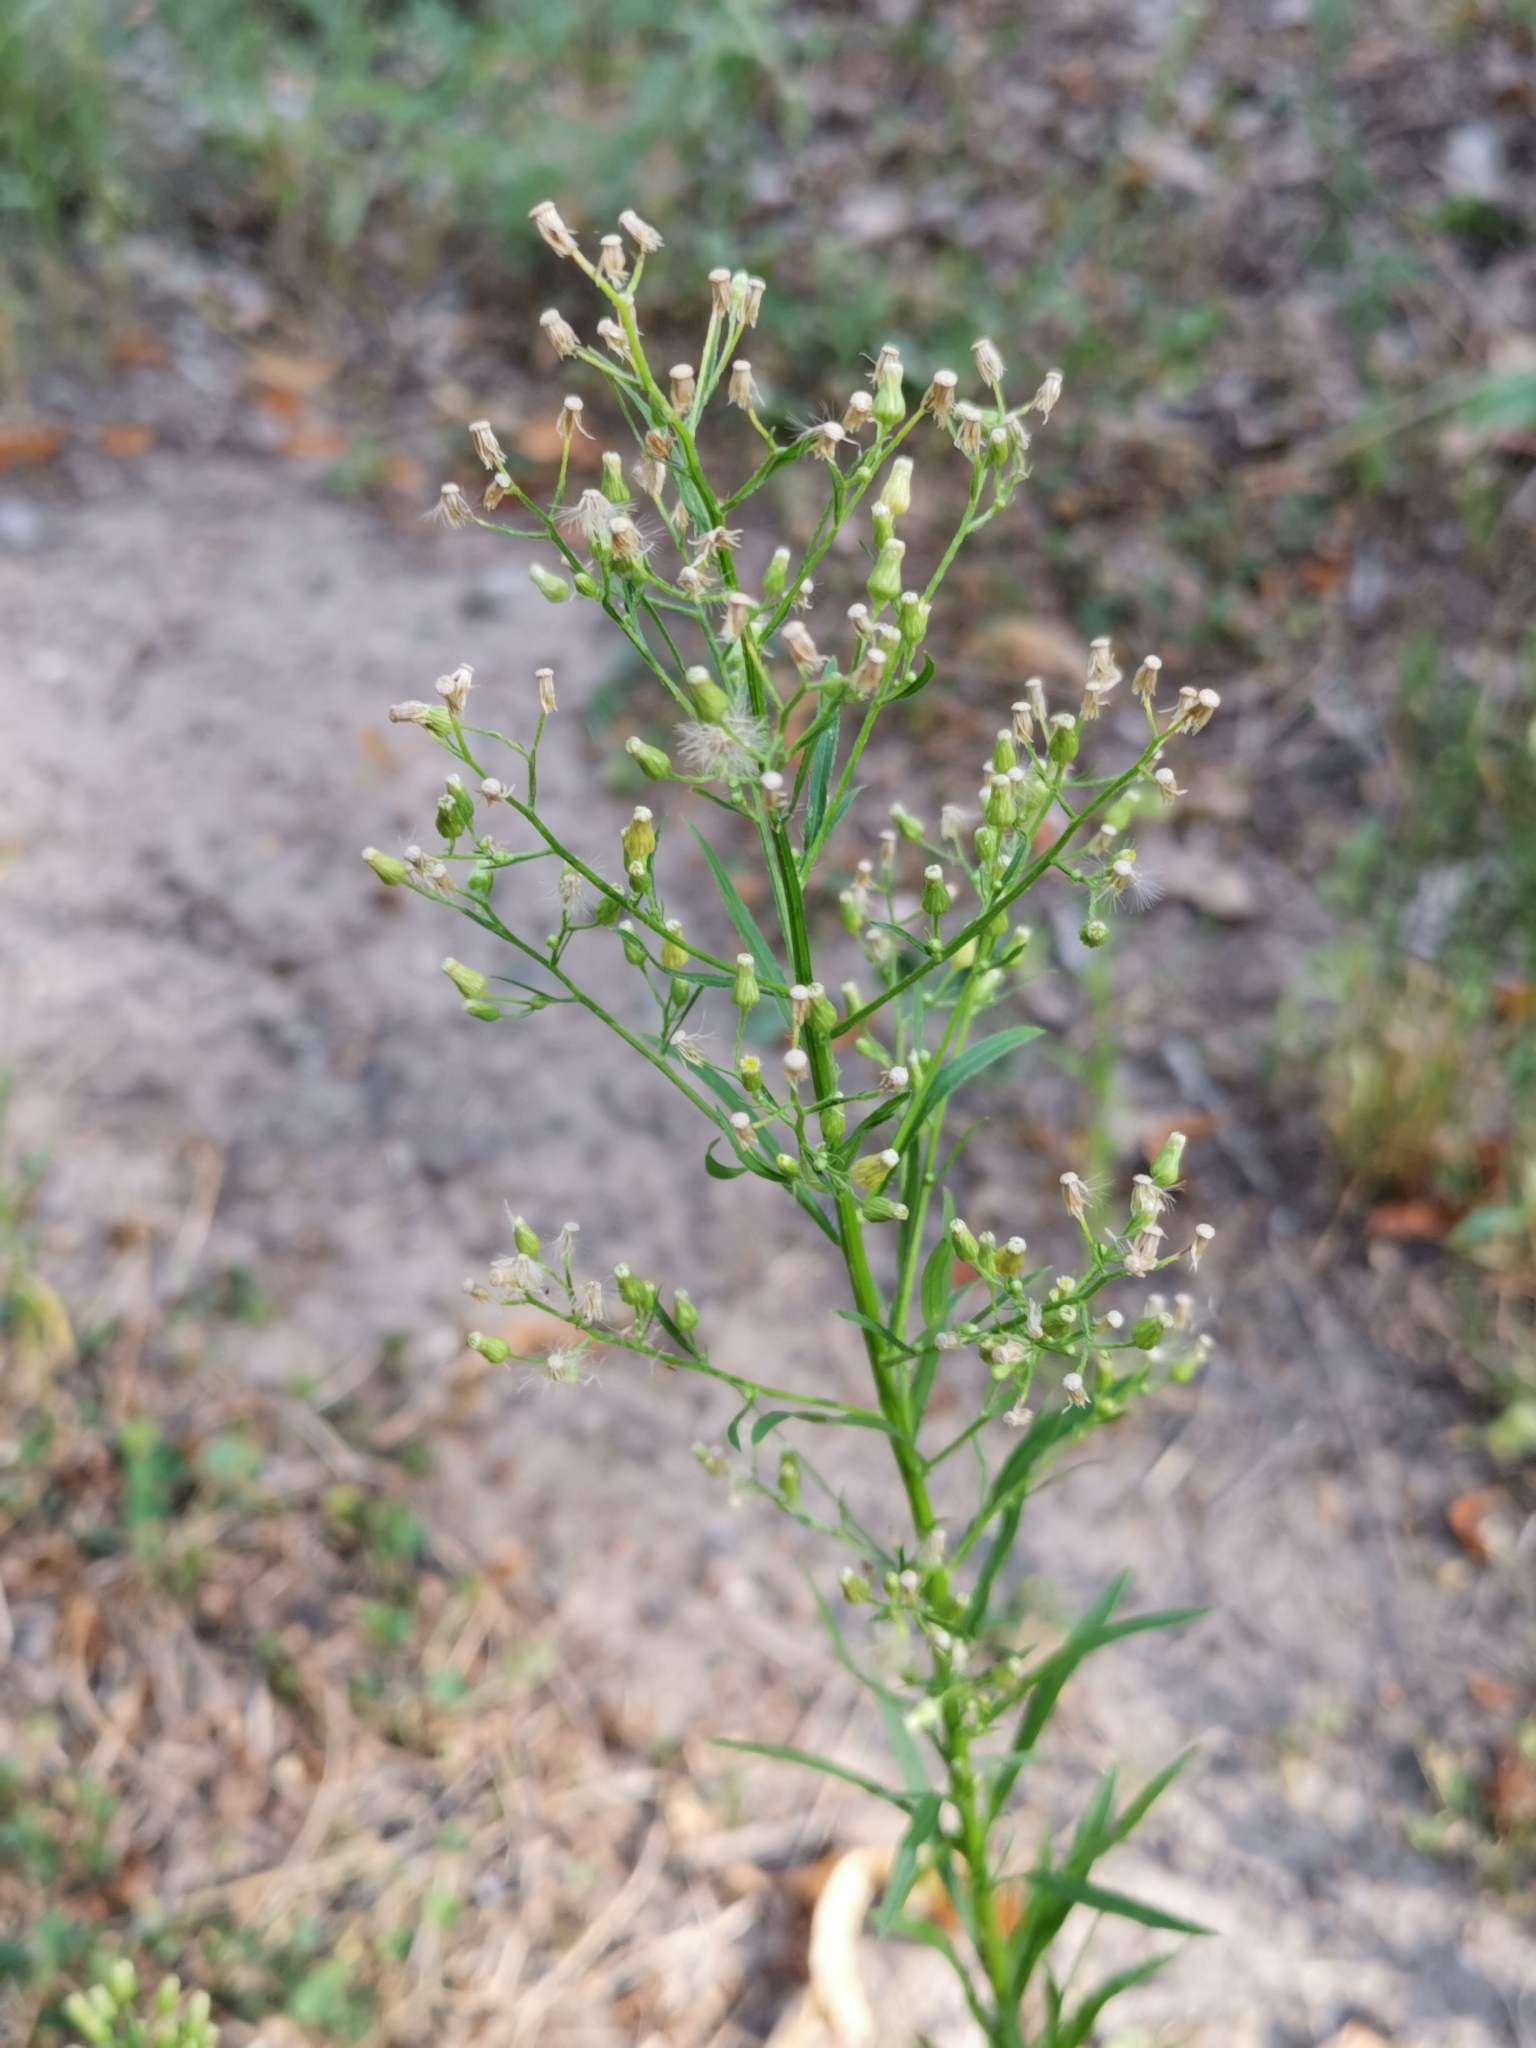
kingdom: Plantae
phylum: Tracheophyta
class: Magnoliopsida
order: Asterales
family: Asteraceae
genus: Erigeron
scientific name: Erigeron canadensis
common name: Canadian fleabane
